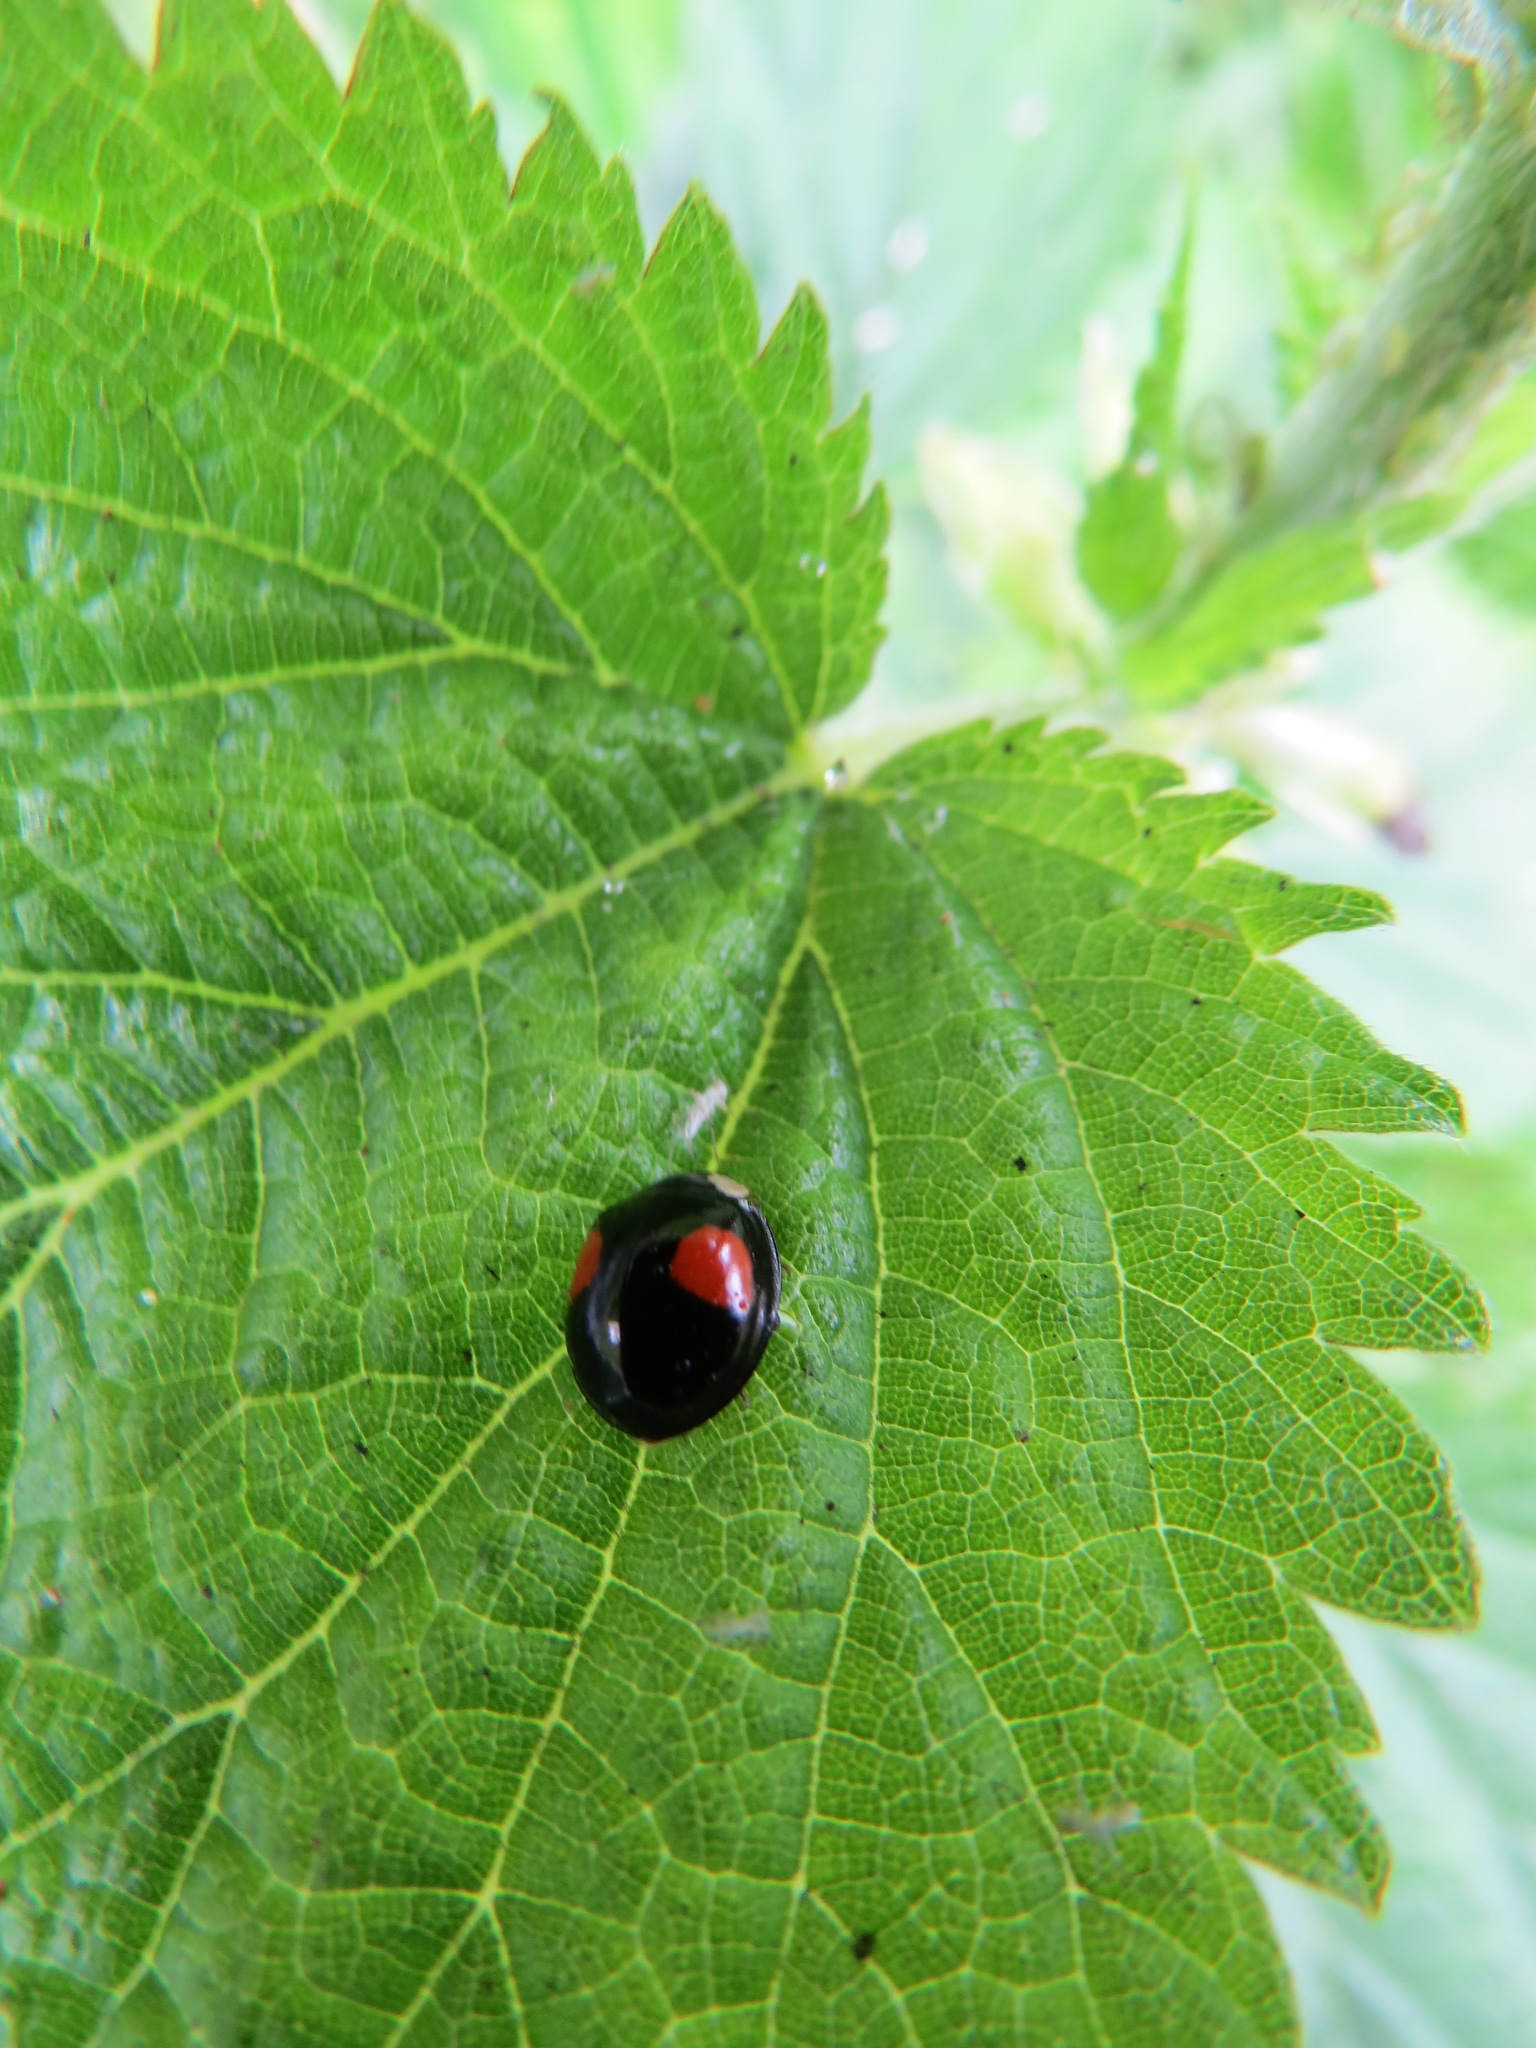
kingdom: Animalia
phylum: Arthropoda
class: Insecta
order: Coleoptera
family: Coccinellidae
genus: Harmonia
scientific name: Harmonia axyridis
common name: Harlequin ladybird
